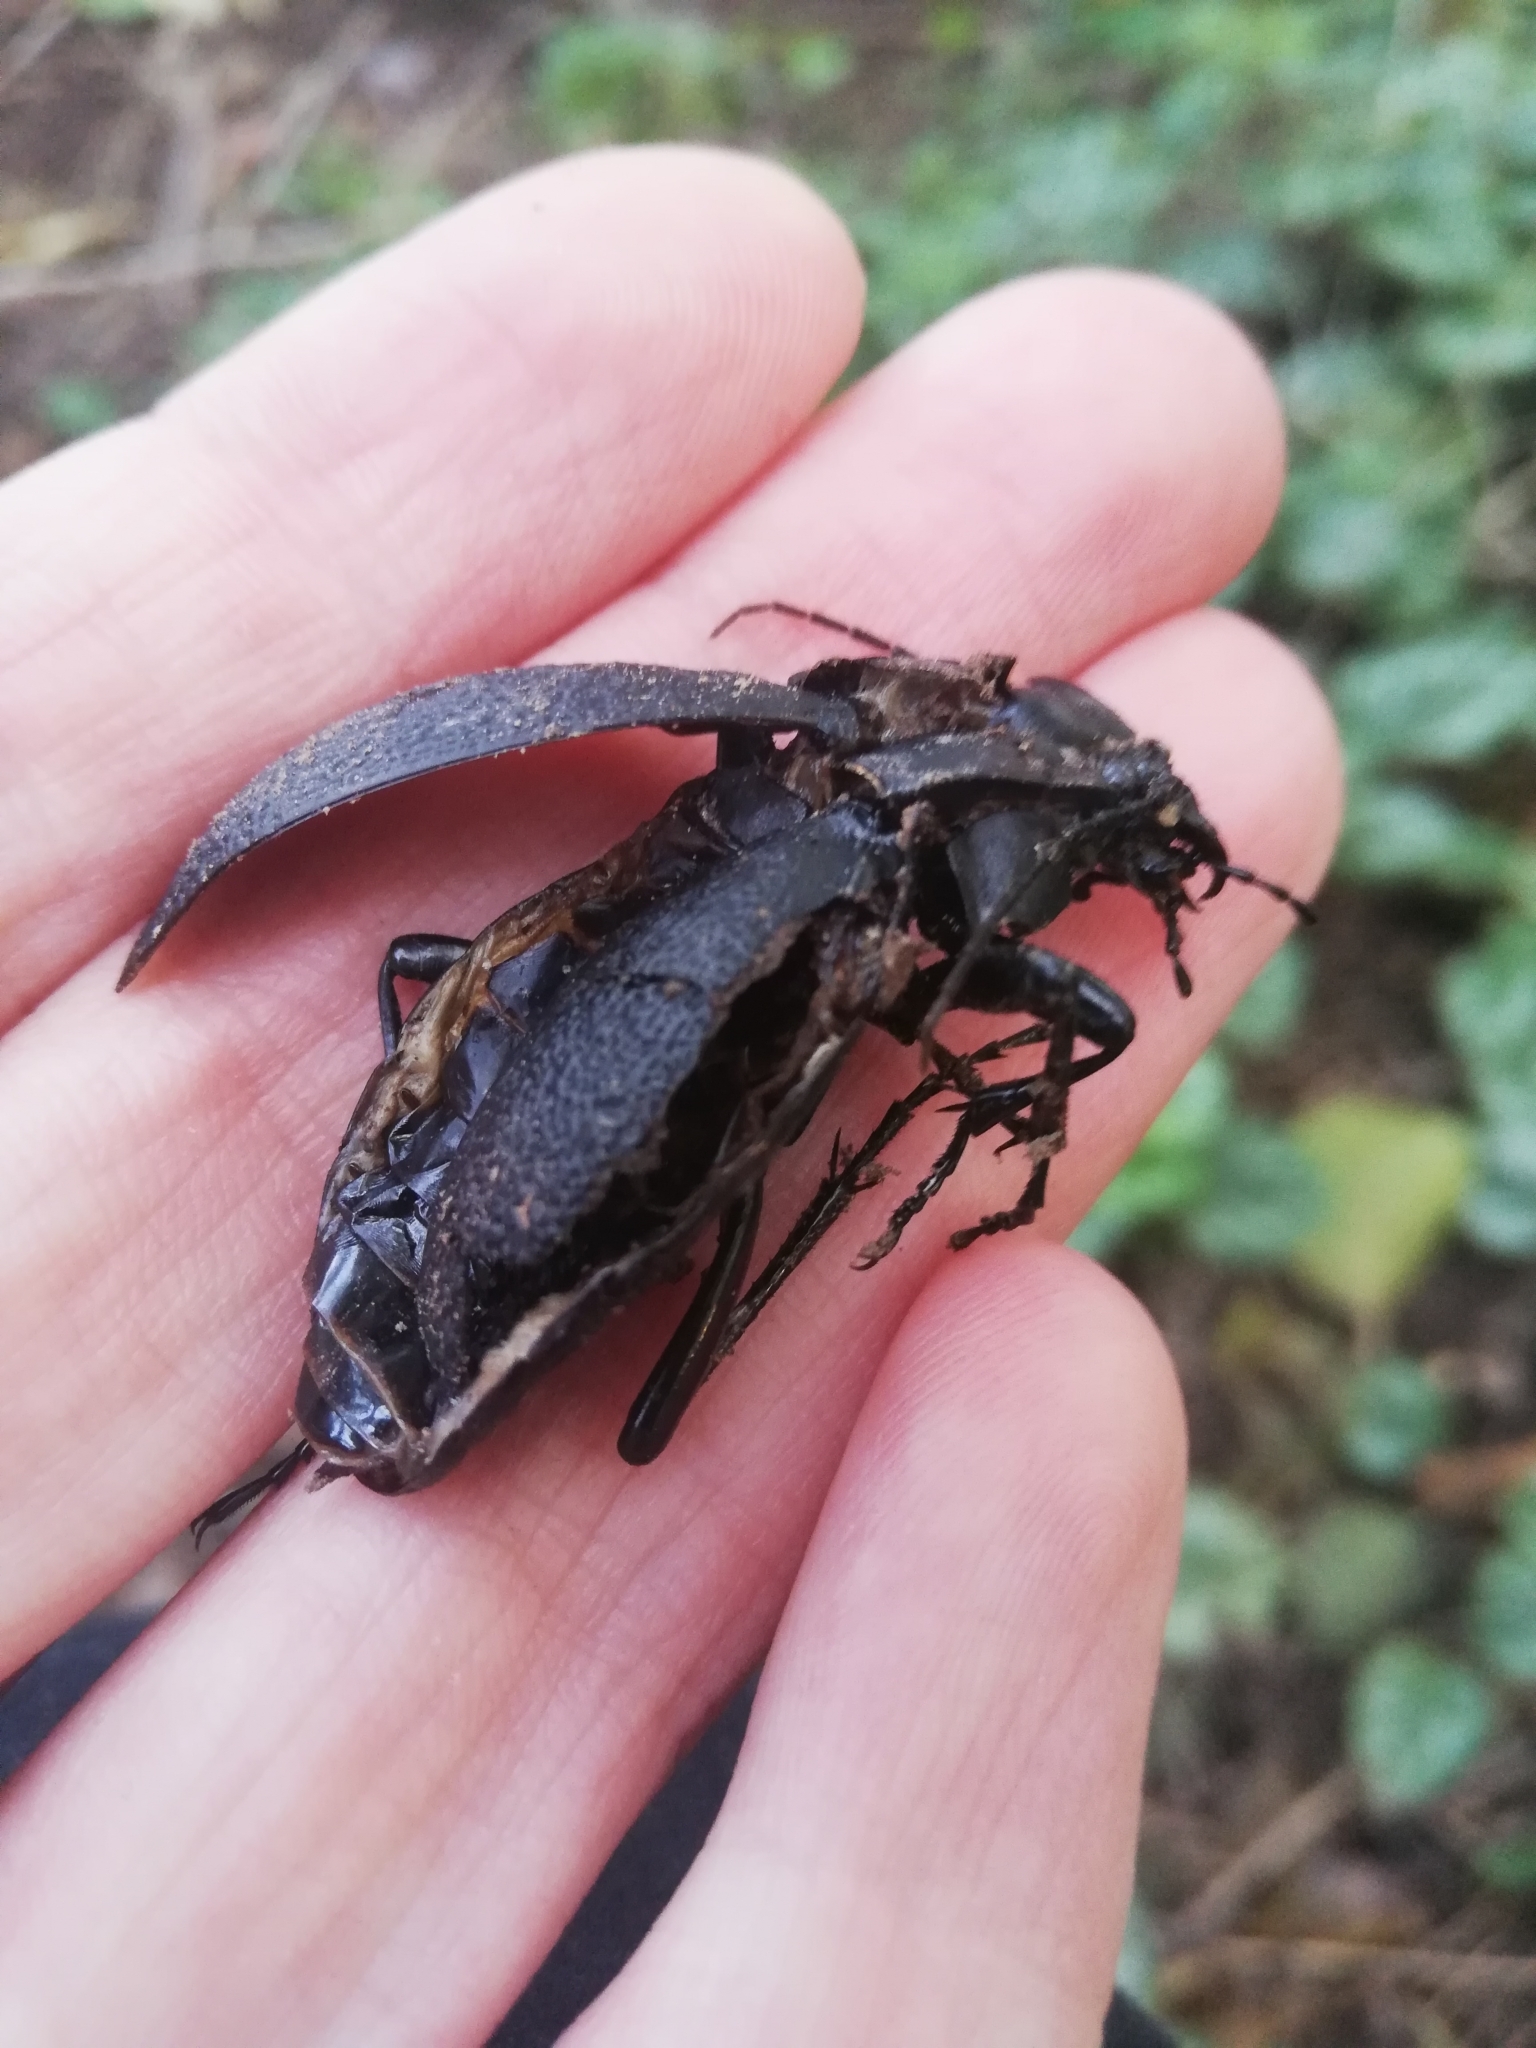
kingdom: Animalia
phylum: Arthropoda
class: Insecta
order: Coleoptera
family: Carabidae
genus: Carabus
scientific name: Carabus coriaceus
